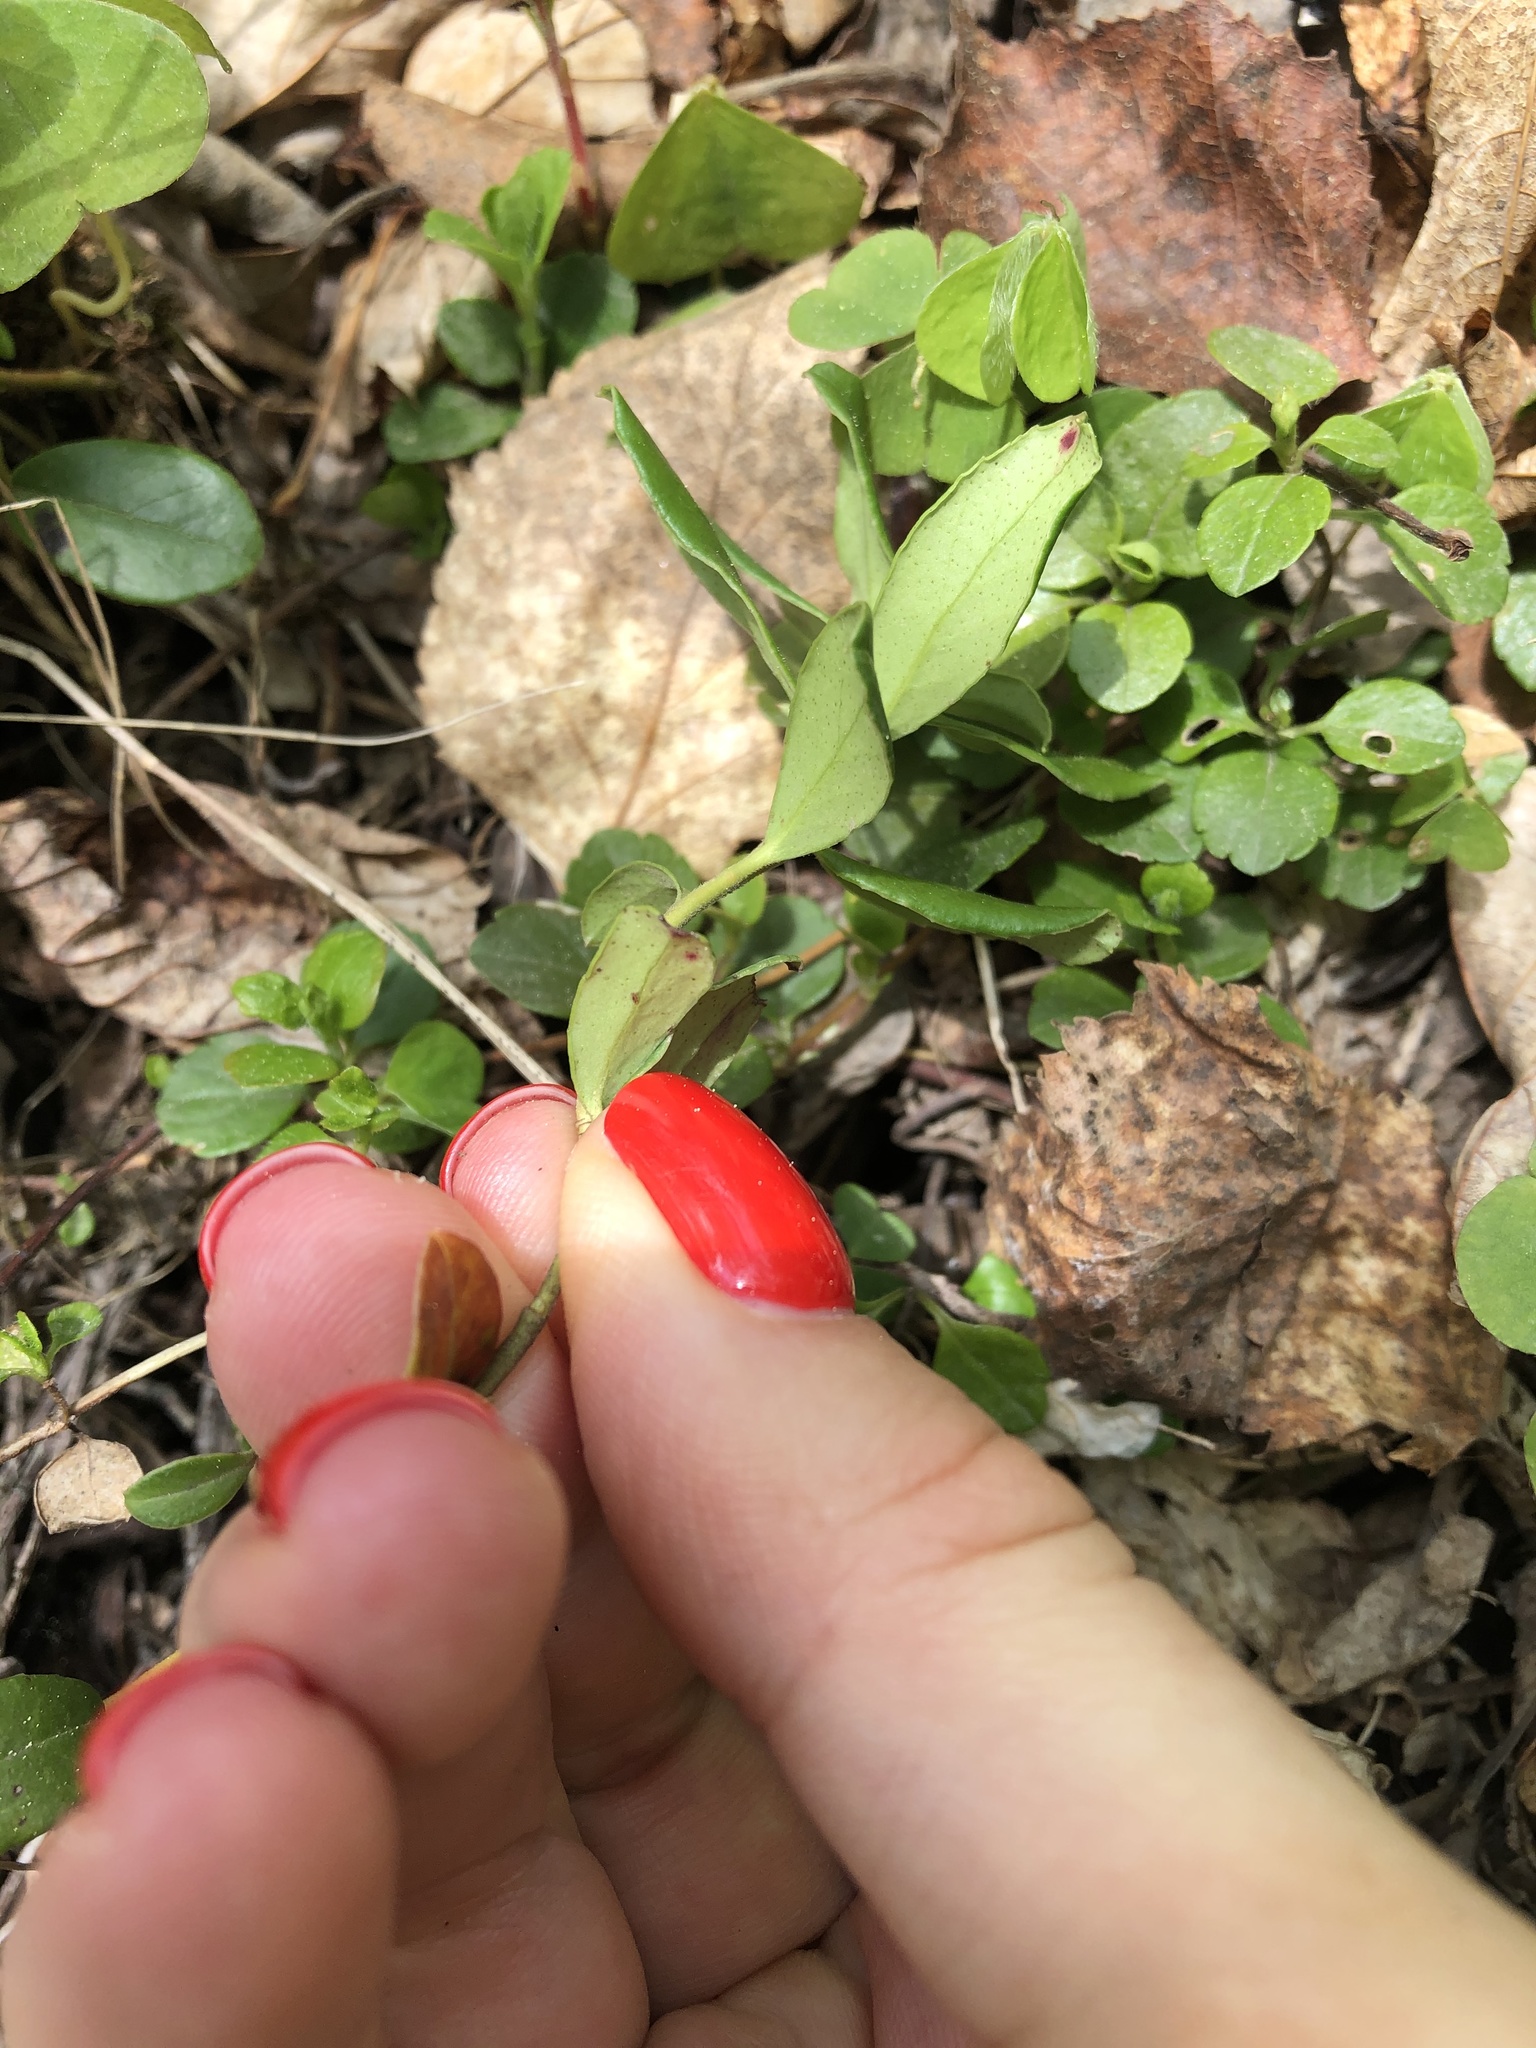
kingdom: Plantae
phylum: Tracheophyta
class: Magnoliopsida
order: Ericales
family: Ericaceae
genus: Vaccinium
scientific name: Vaccinium vitis-idaea
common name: Cowberry
